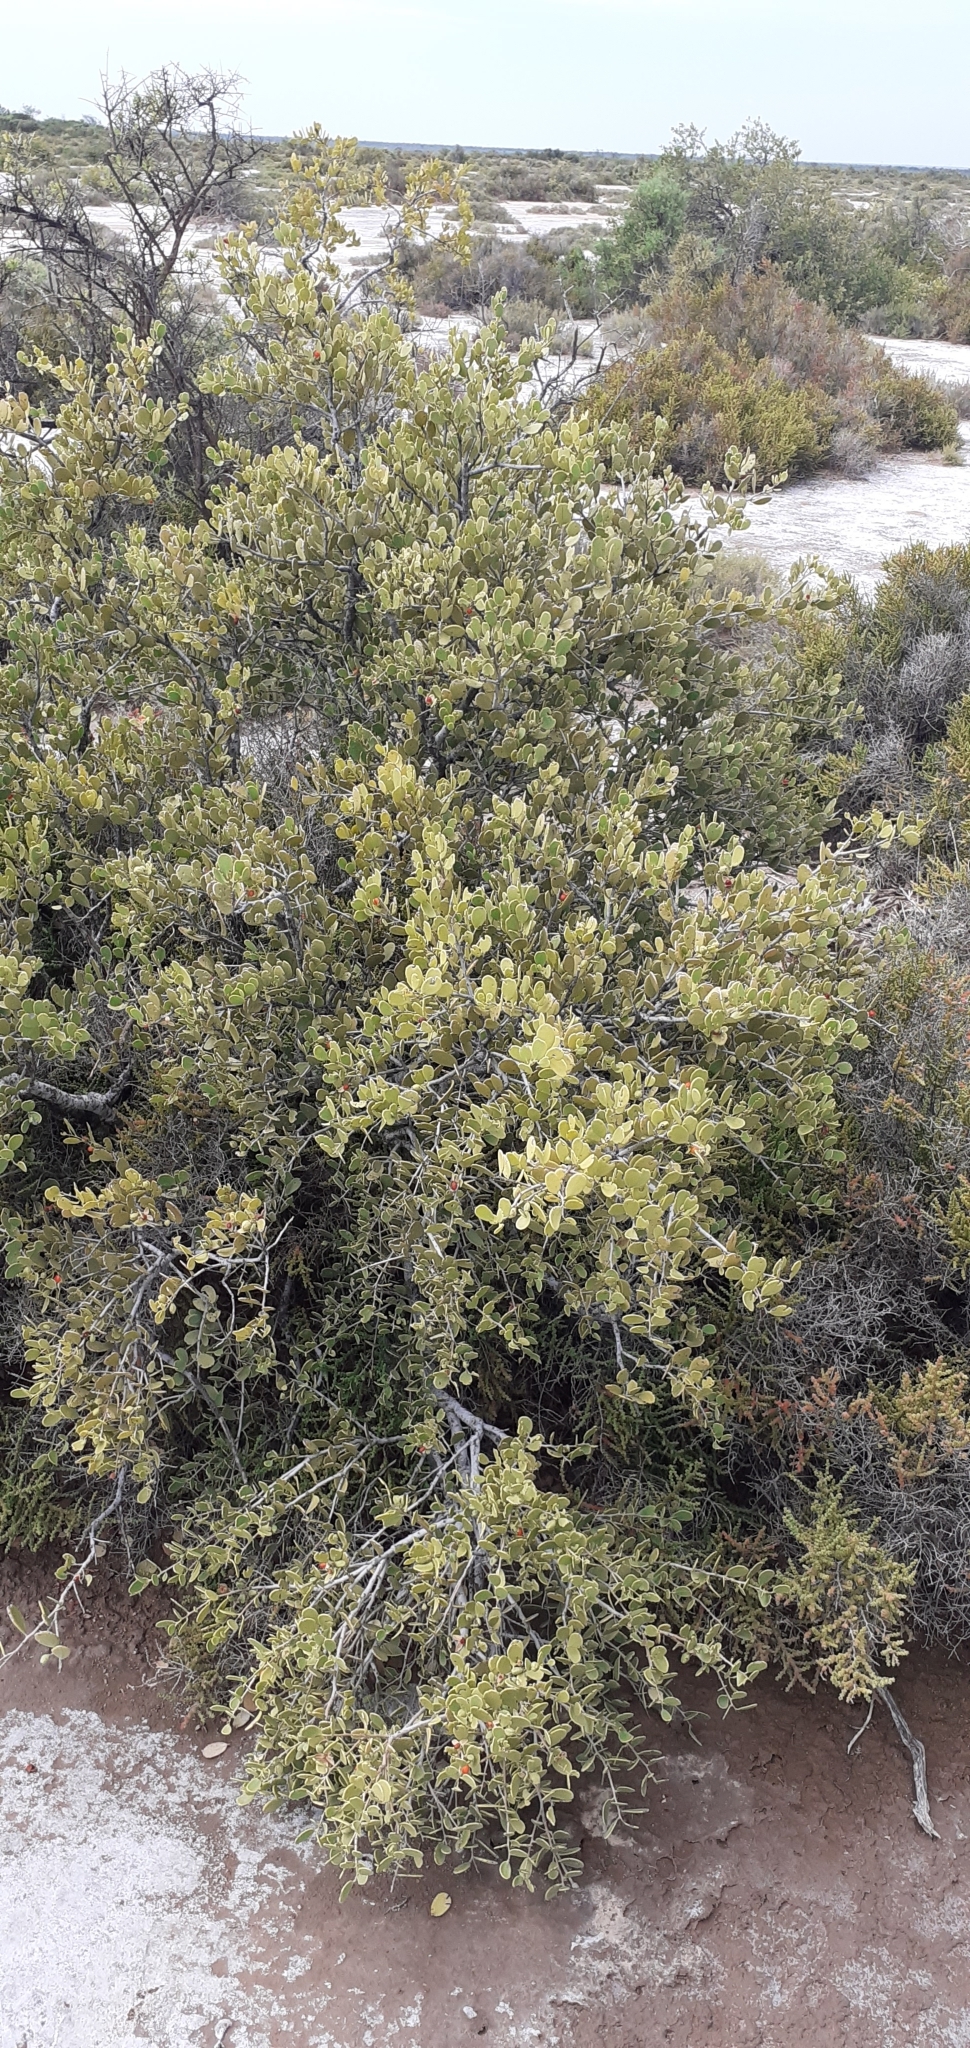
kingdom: Plantae
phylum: Tracheophyta
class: Magnoliopsida
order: Celastrales
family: Celastraceae
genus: Tricerma
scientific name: Tricerma vitis-idaeum
